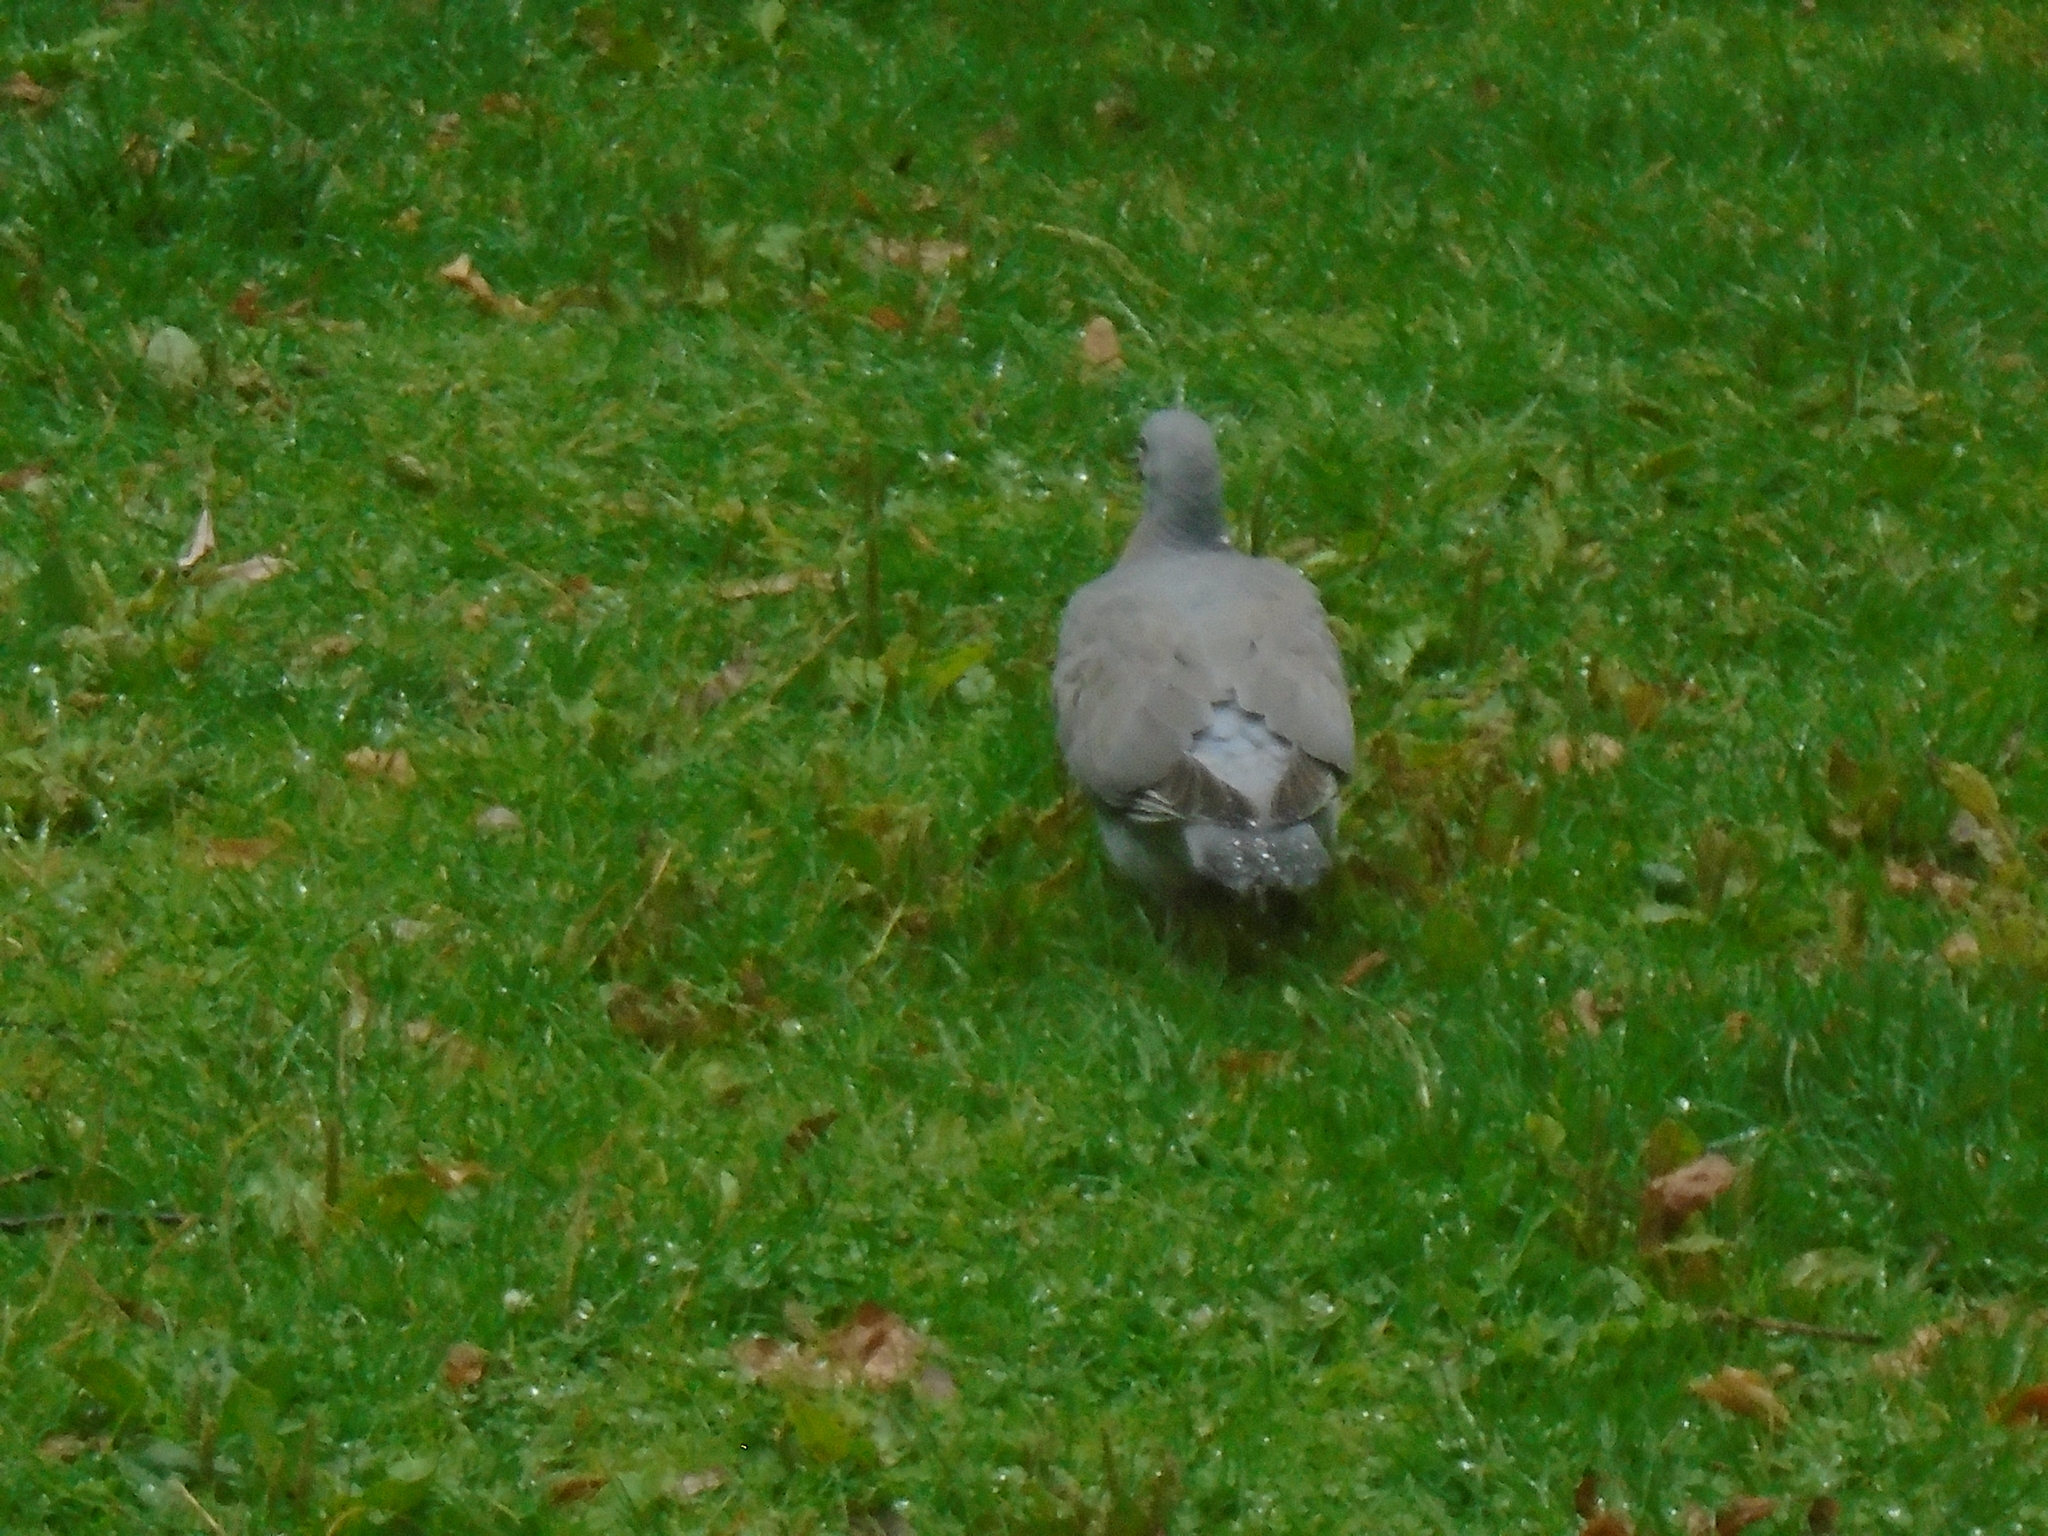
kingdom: Animalia
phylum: Chordata
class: Aves
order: Columbiformes
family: Columbidae
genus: Columba
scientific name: Columba palumbus
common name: Common wood pigeon
